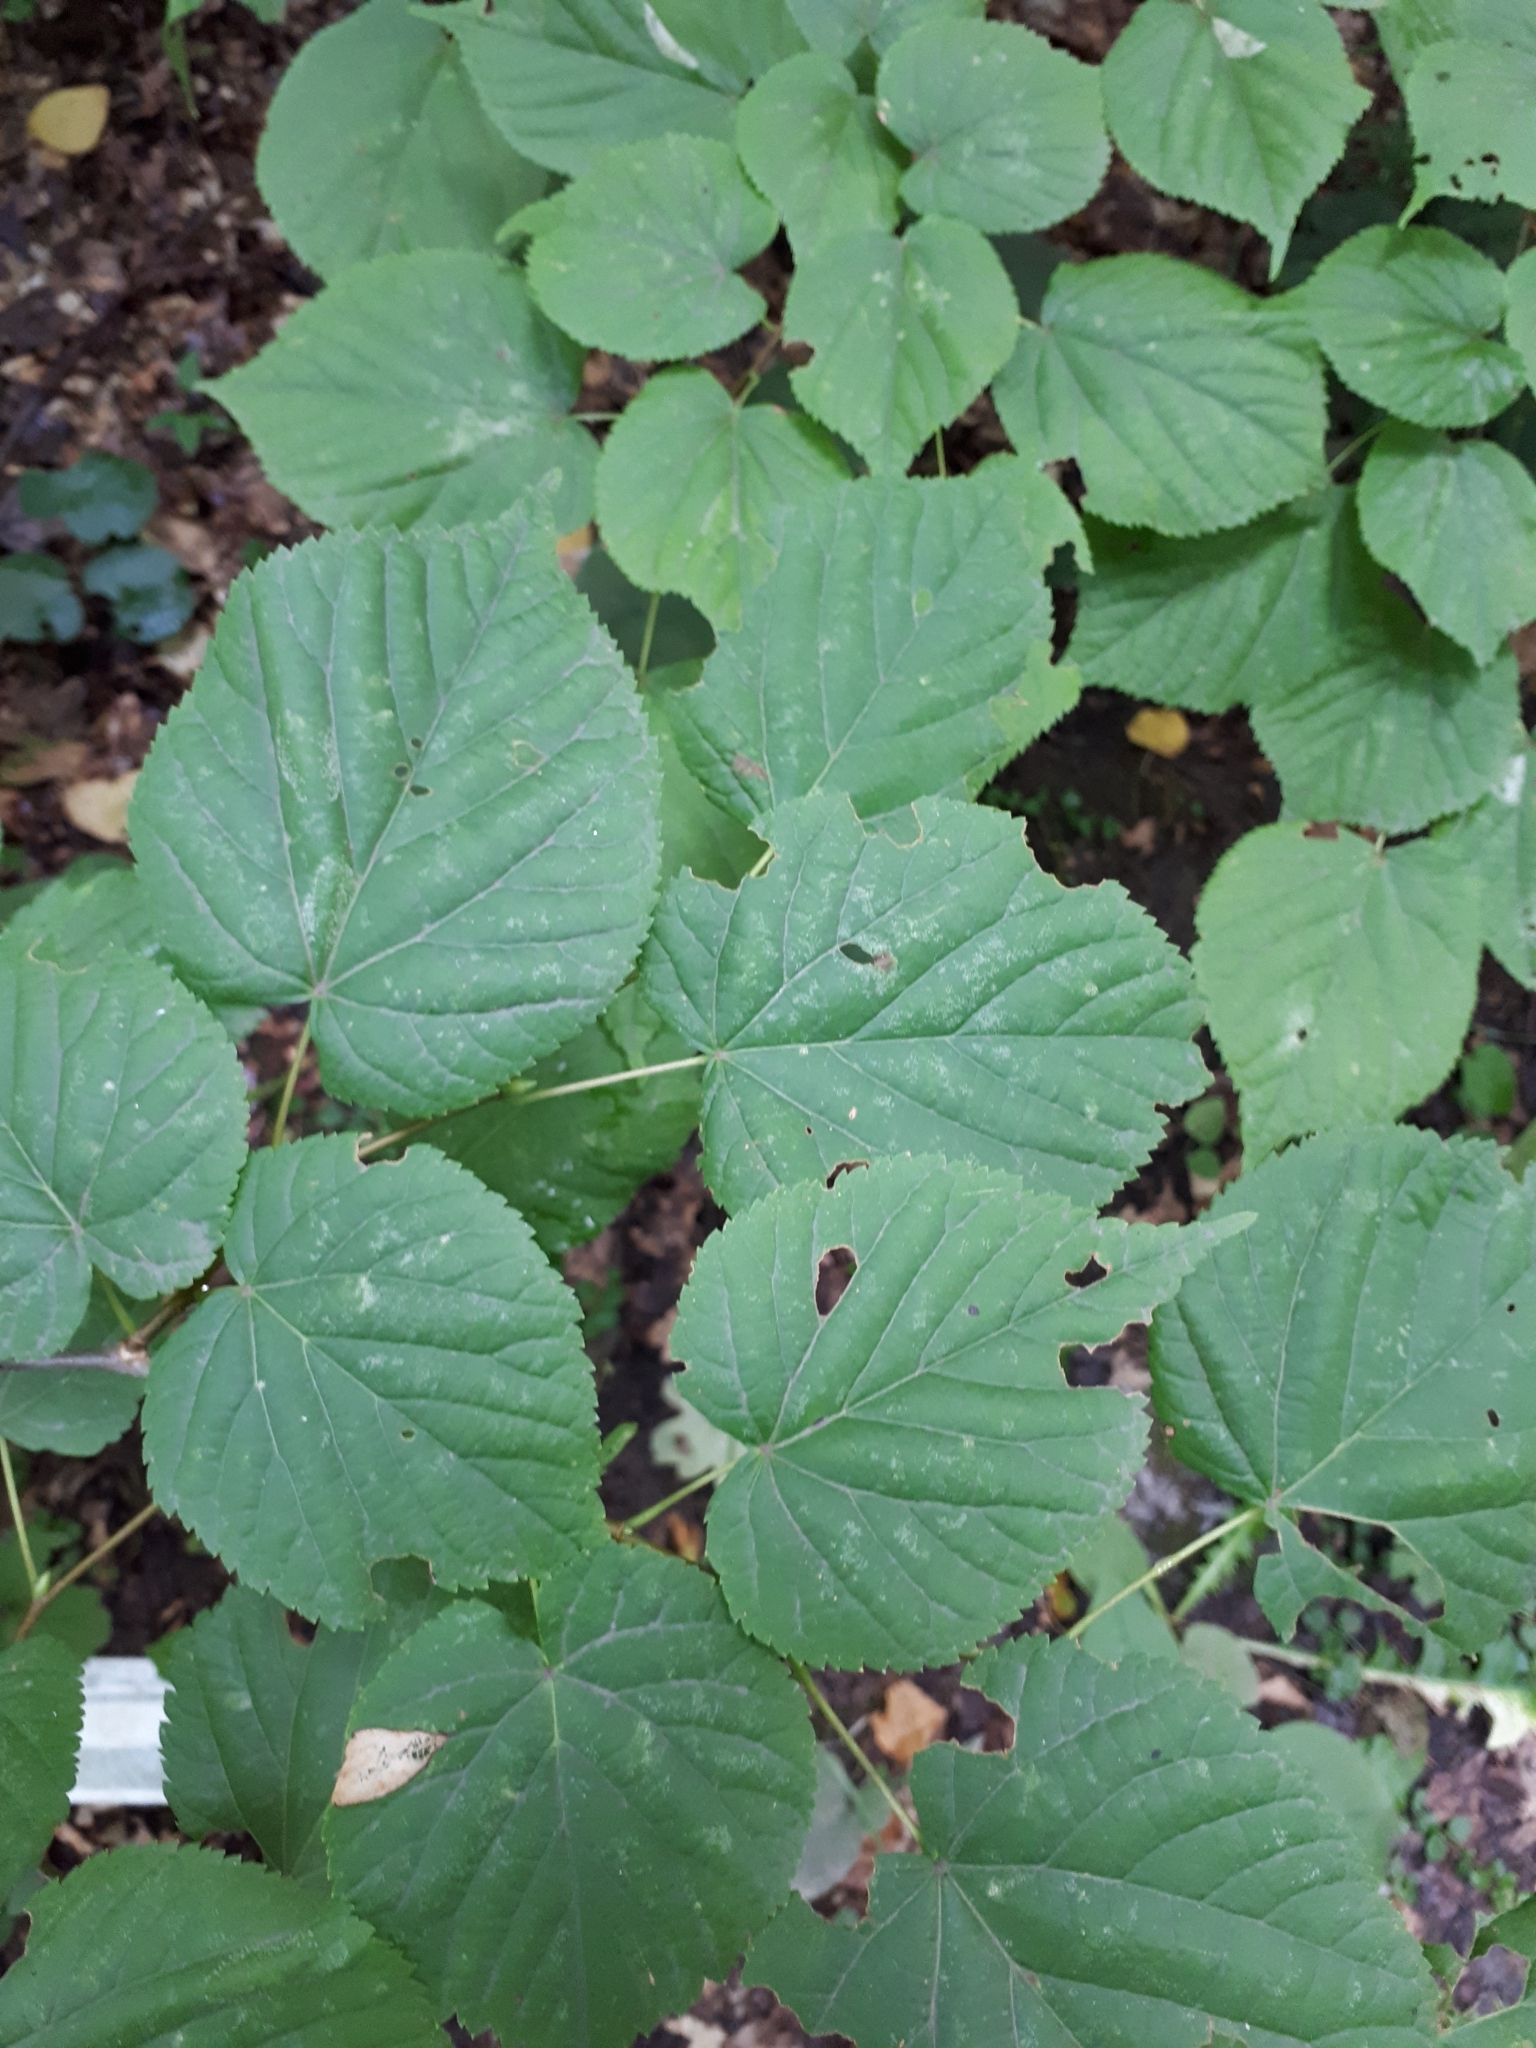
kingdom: Plantae
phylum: Tracheophyta
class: Magnoliopsida
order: Malvales
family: Malvaceae
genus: Tilia
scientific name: Tilia cordata
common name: Small-leaved lime
